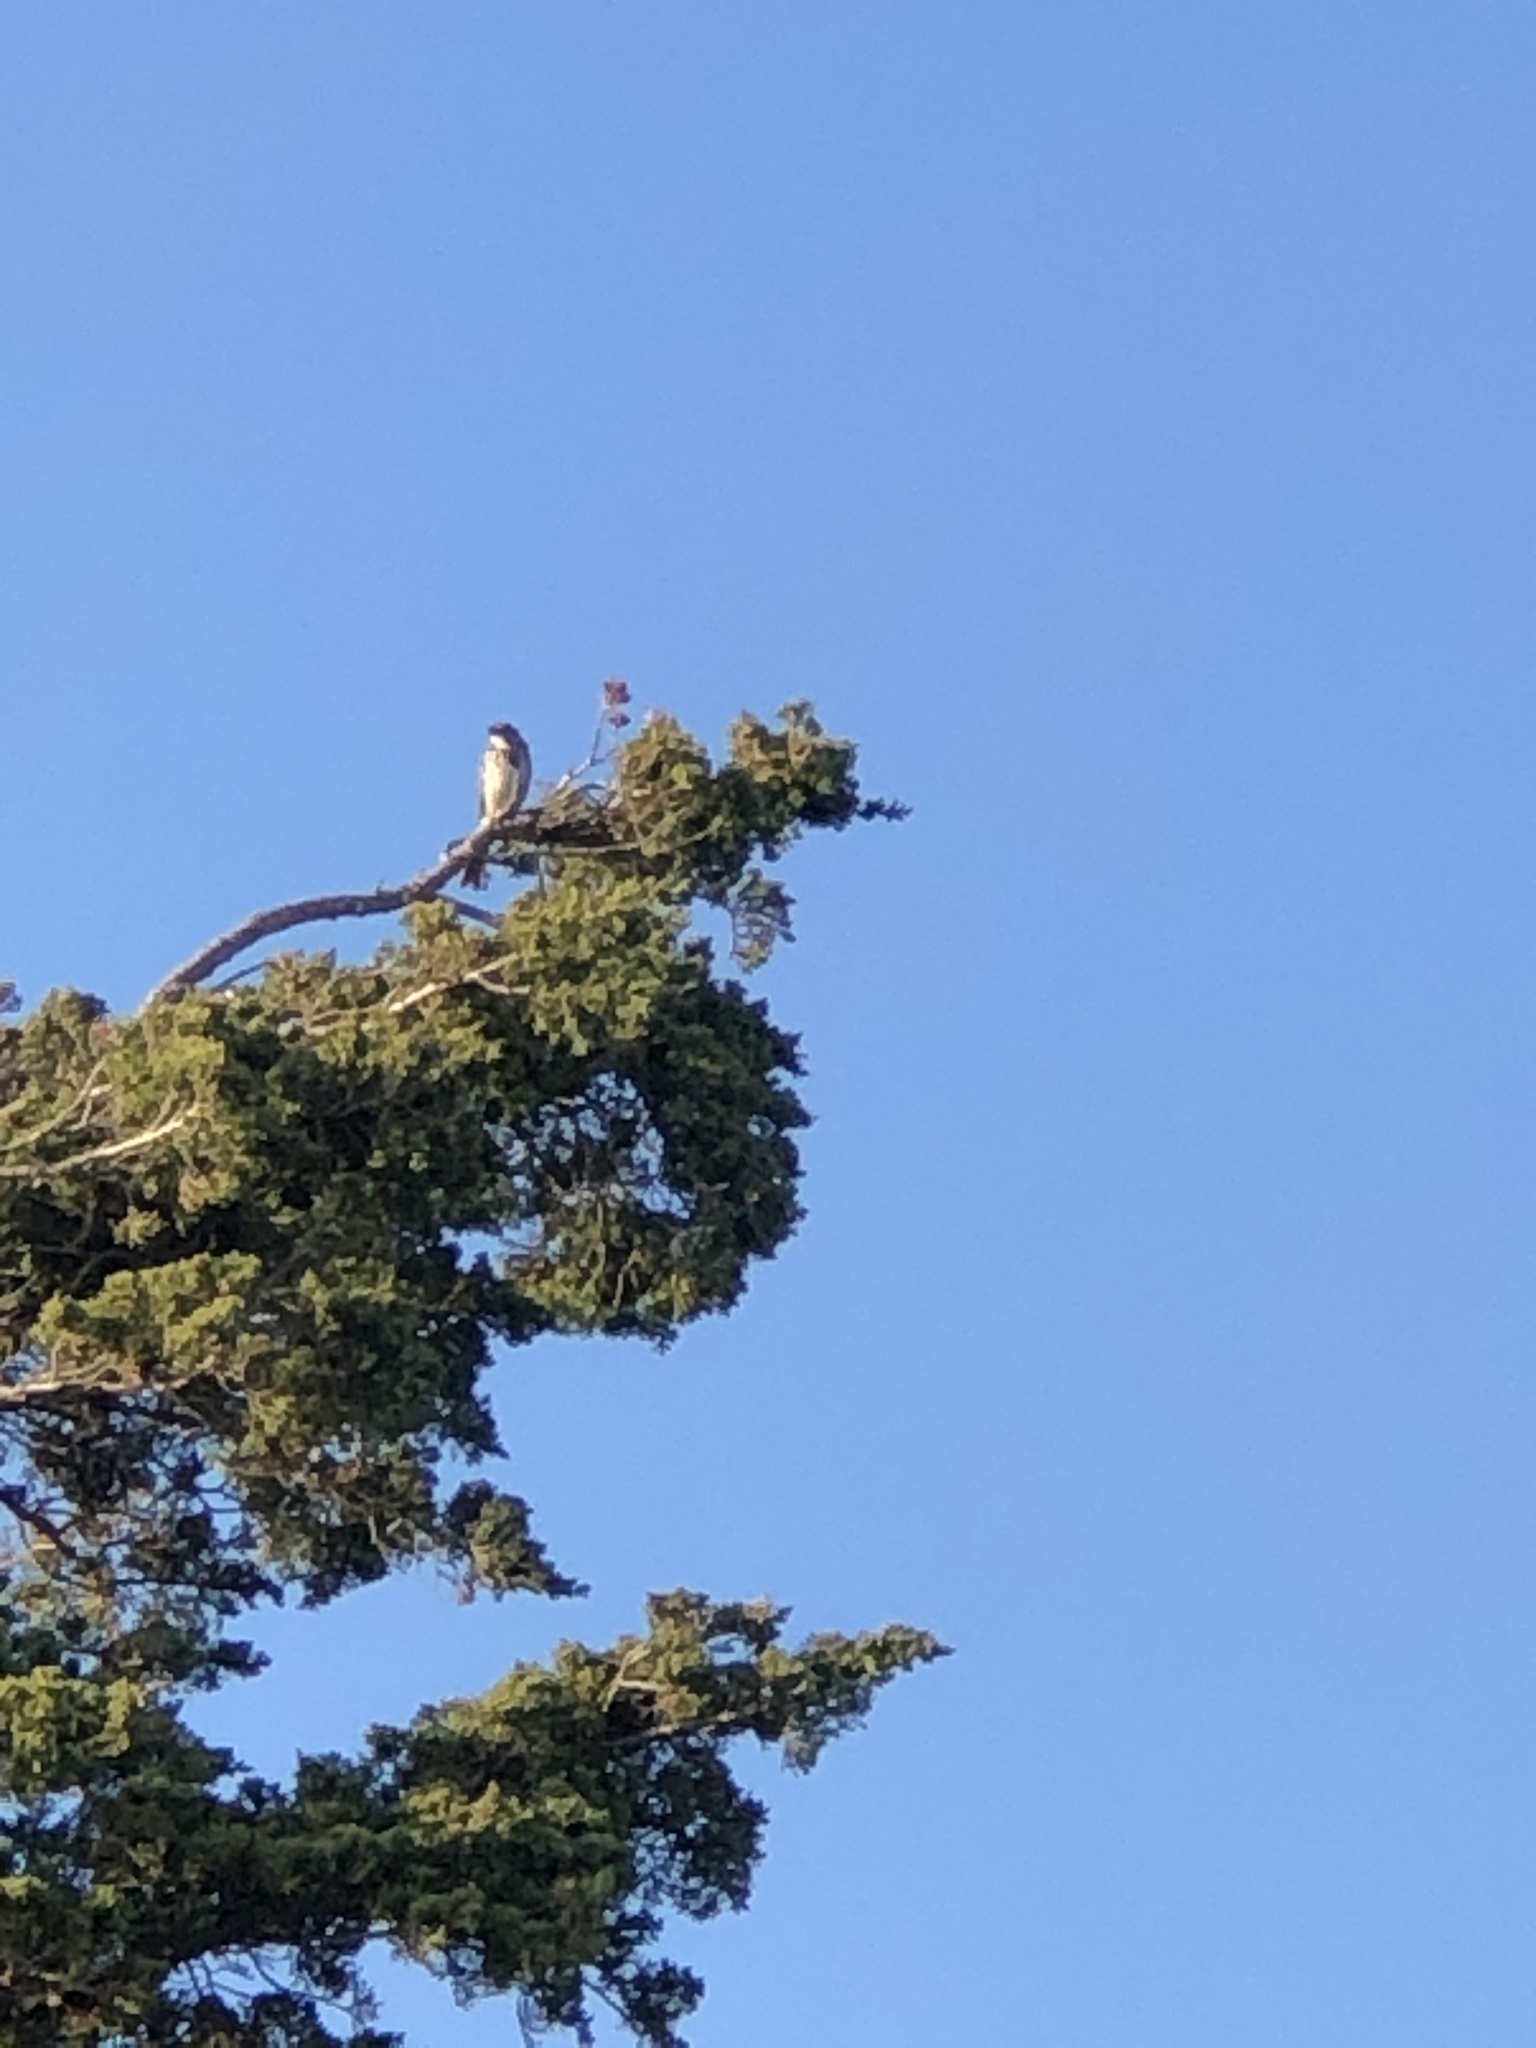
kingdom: Animalia
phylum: Chordata
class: Aves
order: Passeriformes
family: Passerellidae
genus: Melospiza
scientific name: Melospiza melodia
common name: Song sparrow
